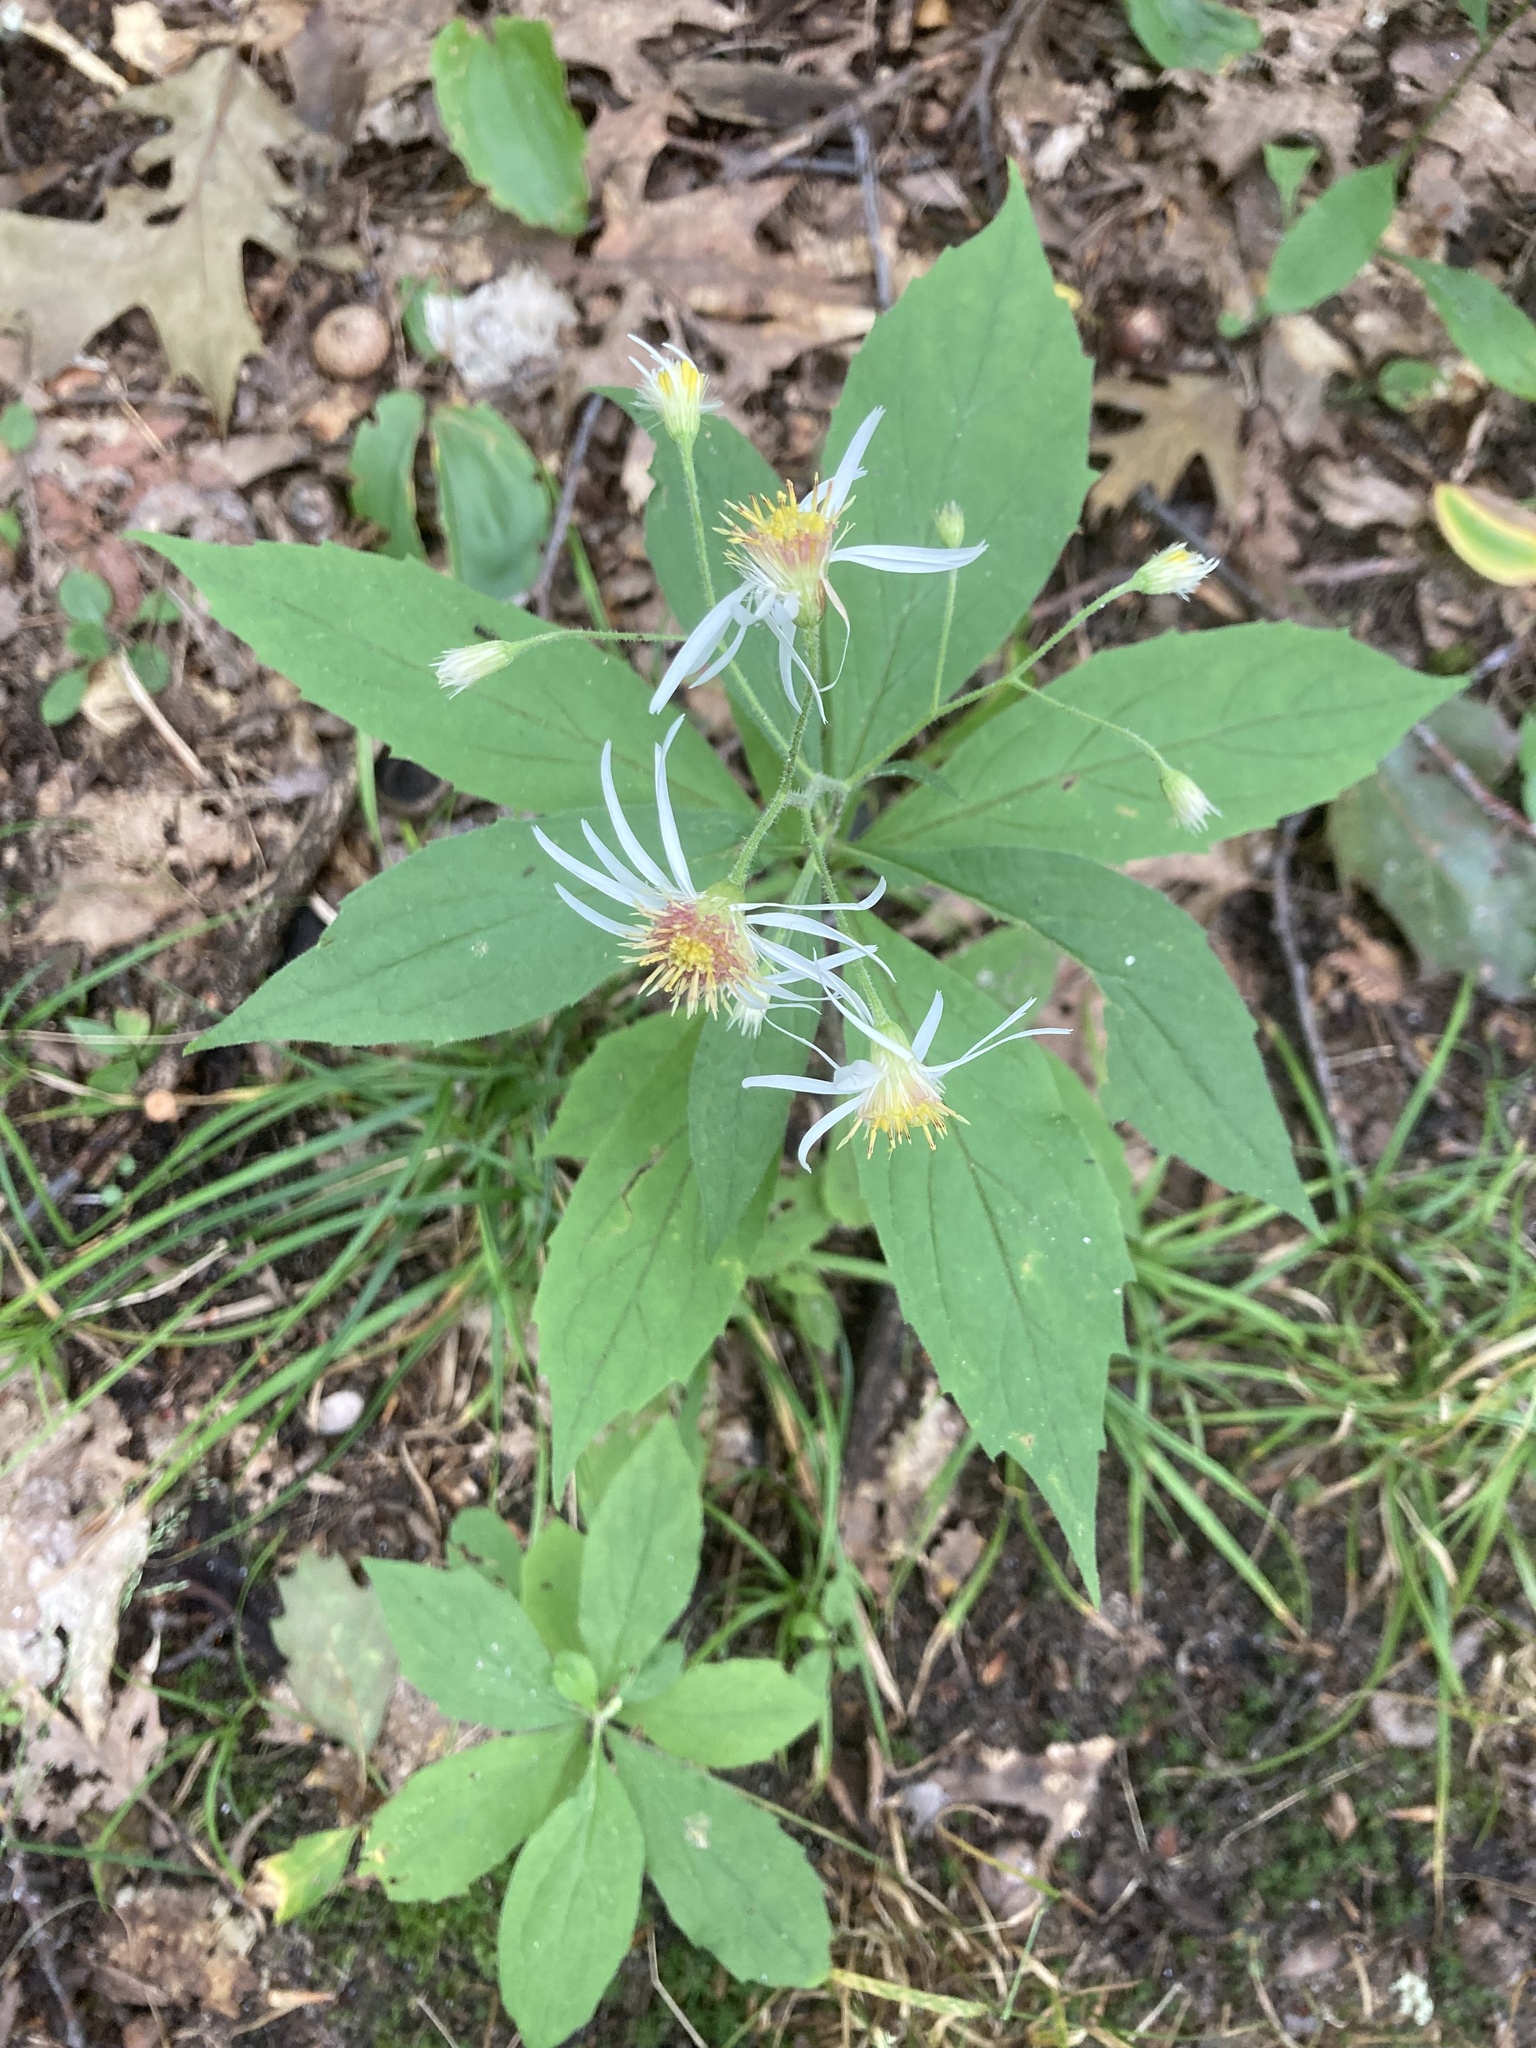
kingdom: Plantae
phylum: Tracheophyta
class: Magnoliopsida
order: Asterales
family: Asteraceae
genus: Oclemena
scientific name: Oclemena acuminata
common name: Mountain aster
